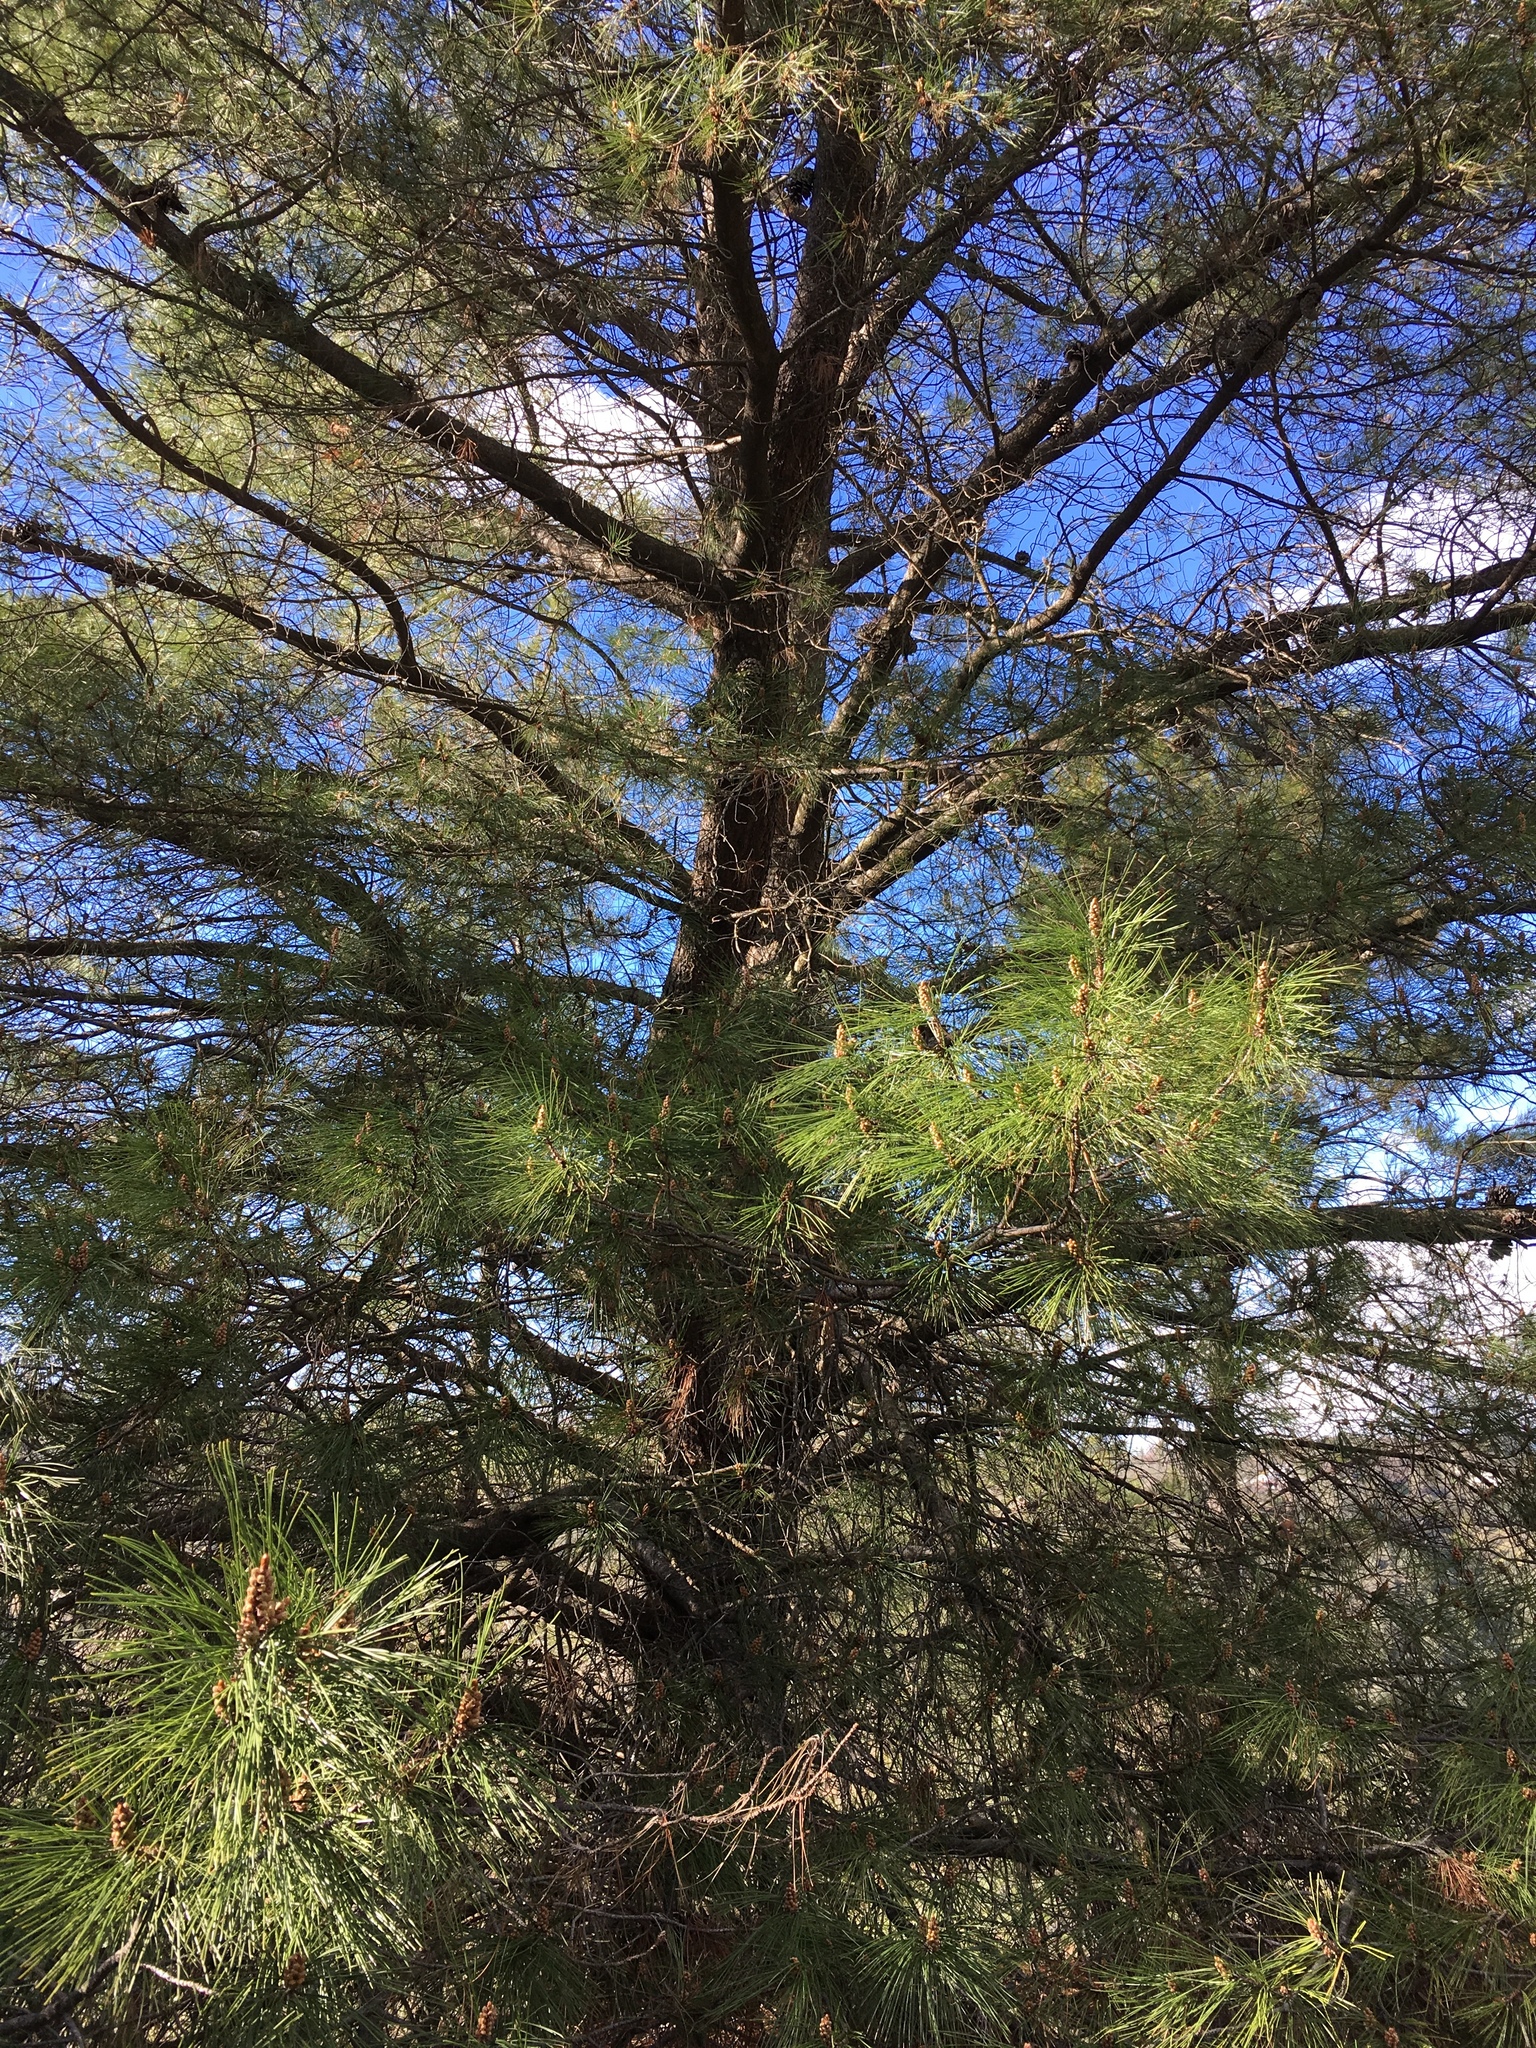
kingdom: Plantae
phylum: Tracheophyta
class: Pinopsida
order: Pinales
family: Pinaceae
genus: Pinus
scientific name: Pinus attenuata
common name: Knobcone pine
